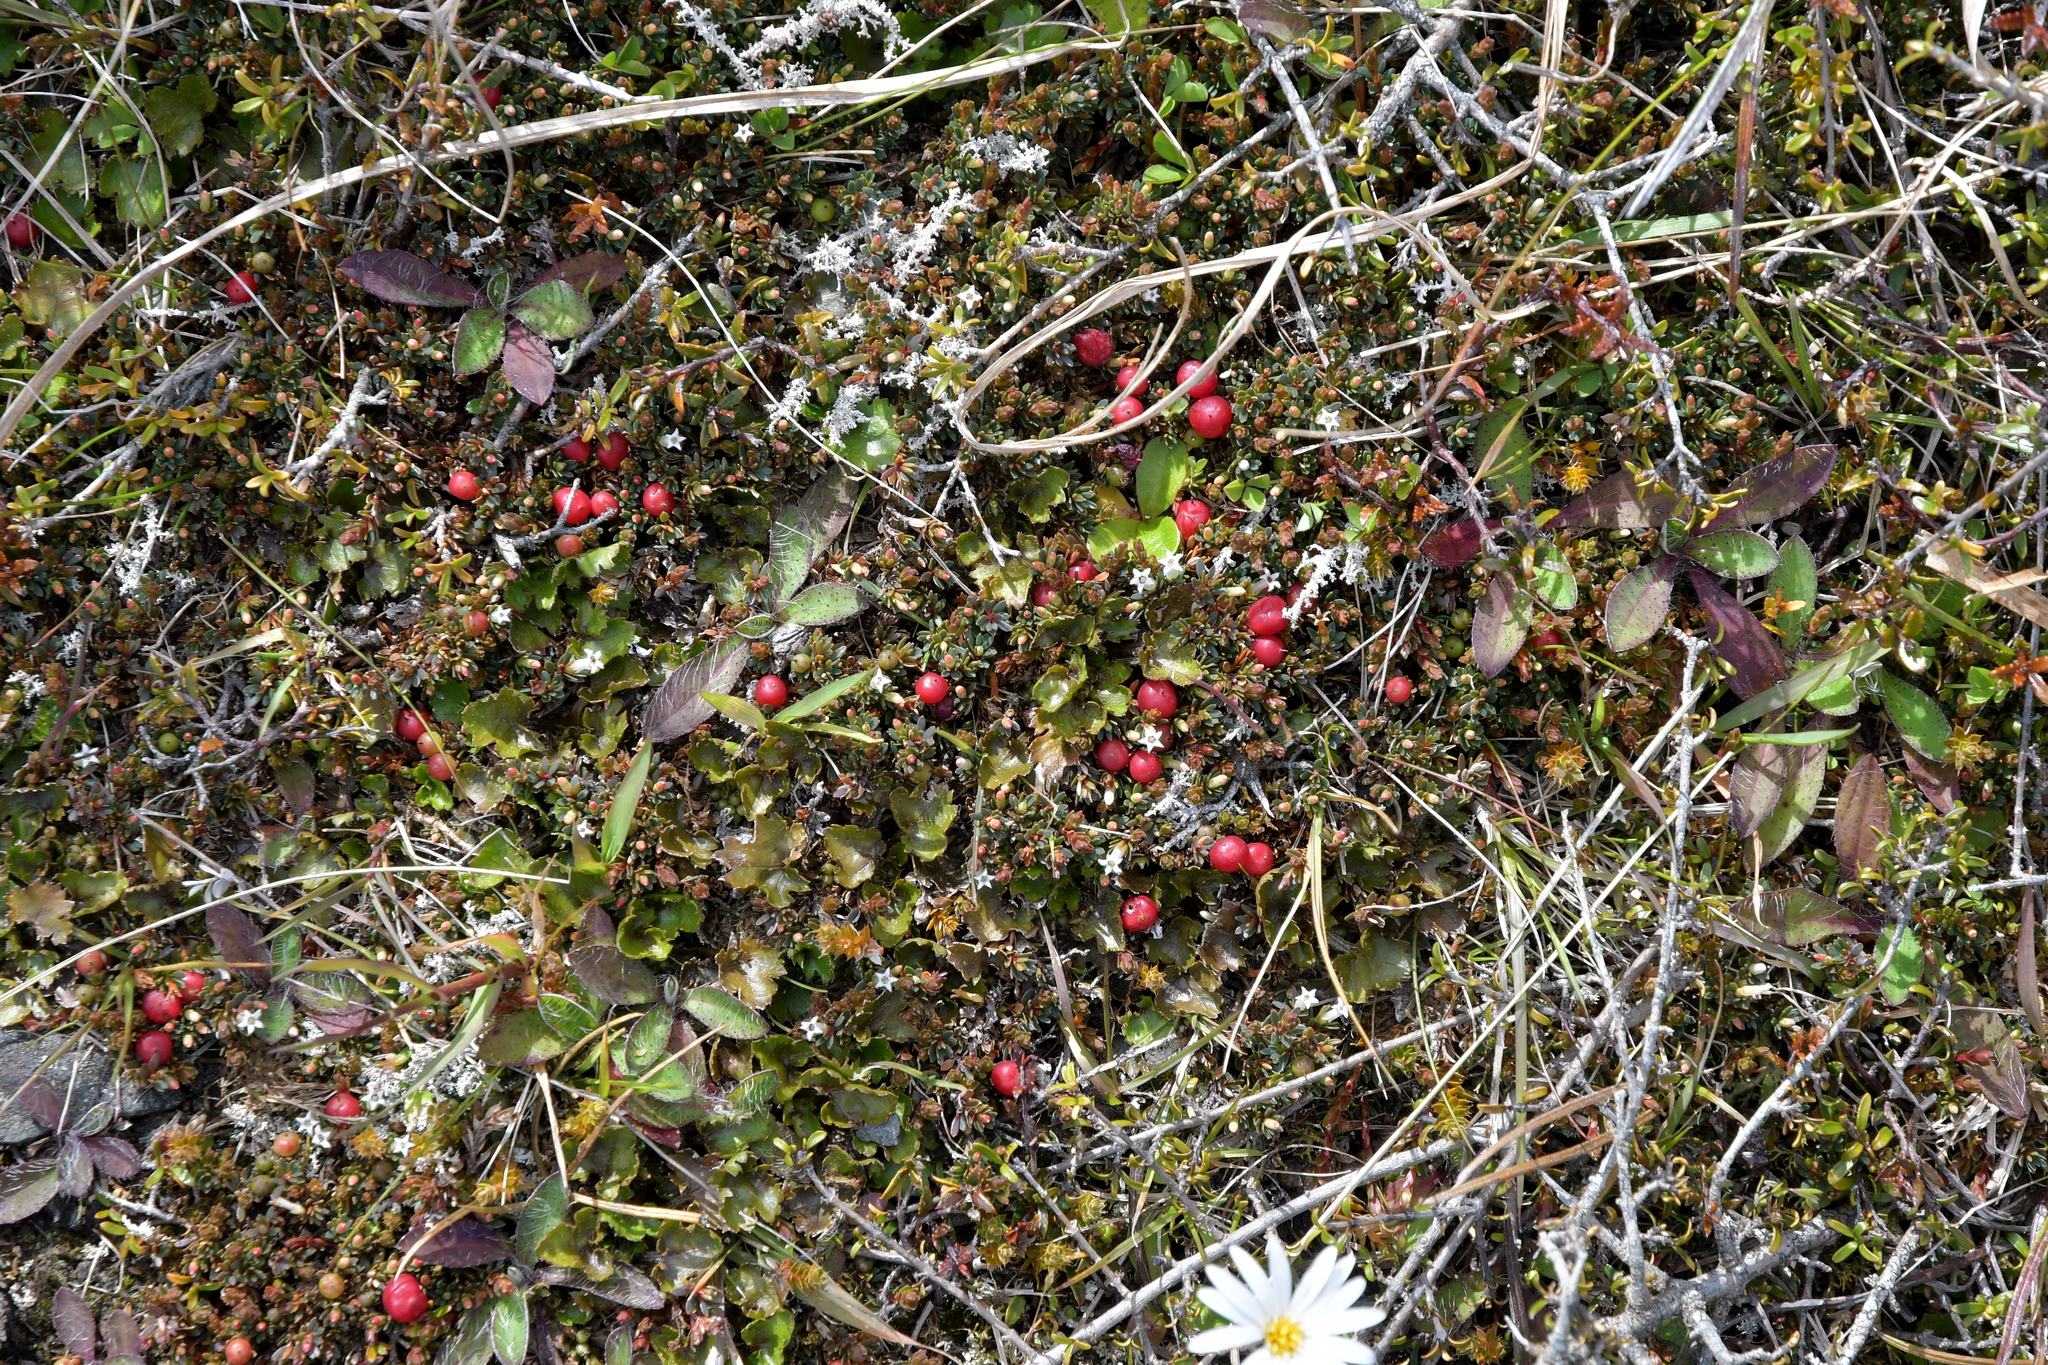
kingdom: Plantae
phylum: Tracheophyta
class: Magnoliopsida
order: Ericales
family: Ericaceae
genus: Pentachondra
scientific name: Pentachondra pumila
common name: Carpet-heath
